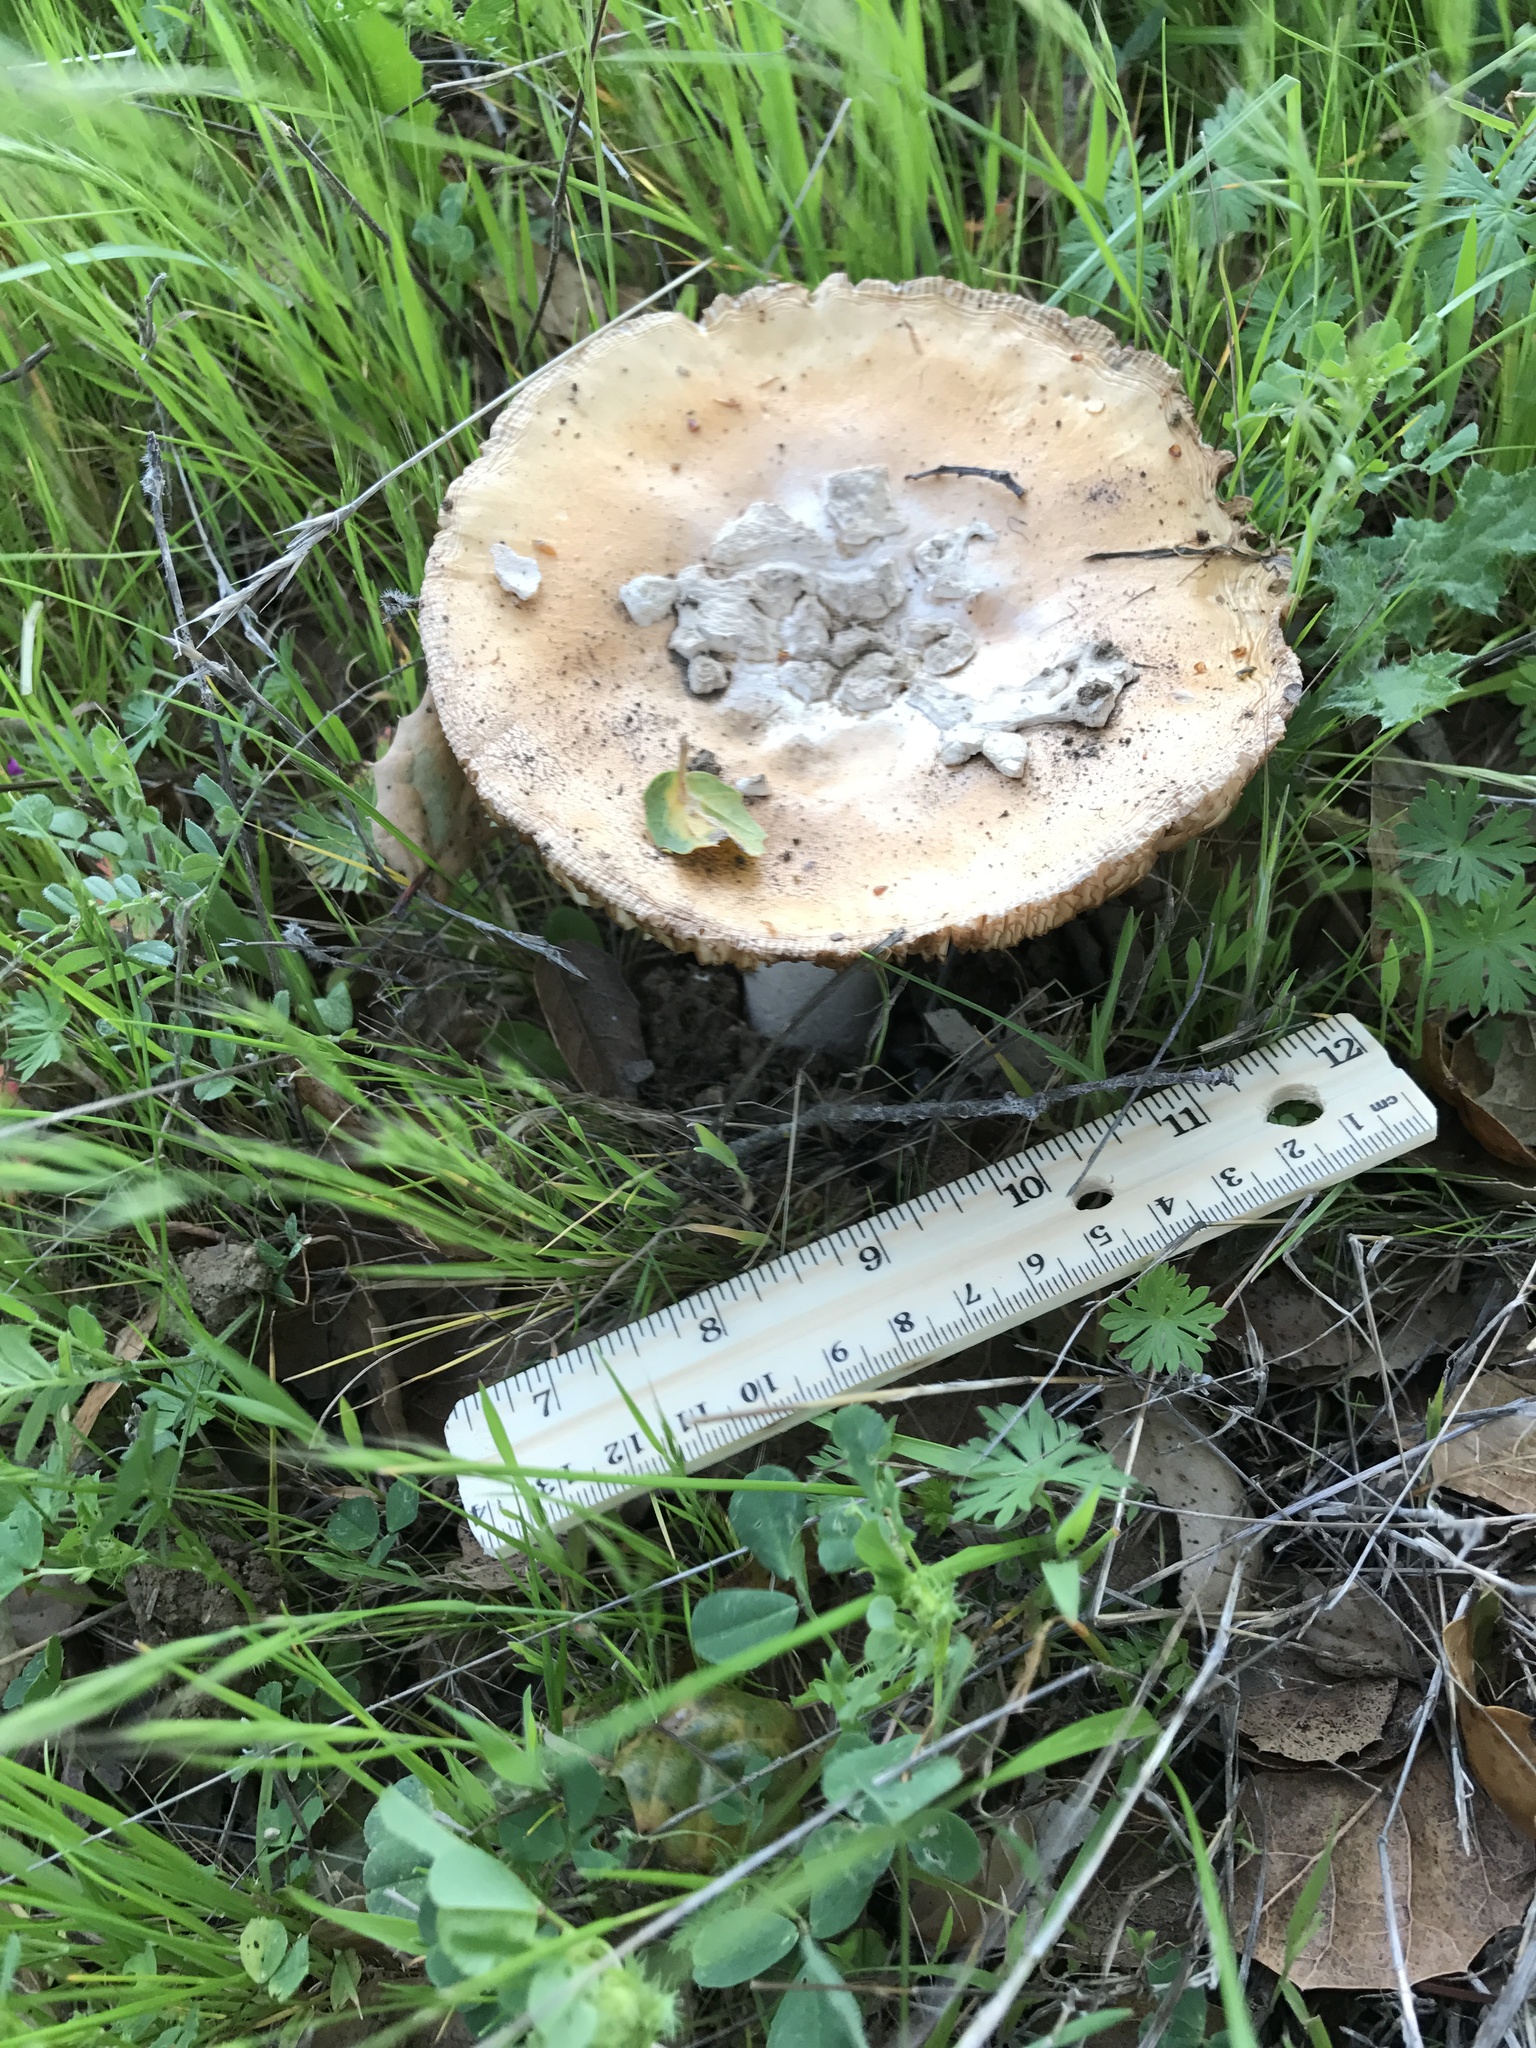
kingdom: Fungi
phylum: Basidiomycota
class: Agaricomycetes
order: Agaricales
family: Amanitaceae
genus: Amanita
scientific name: Amanita velosa
